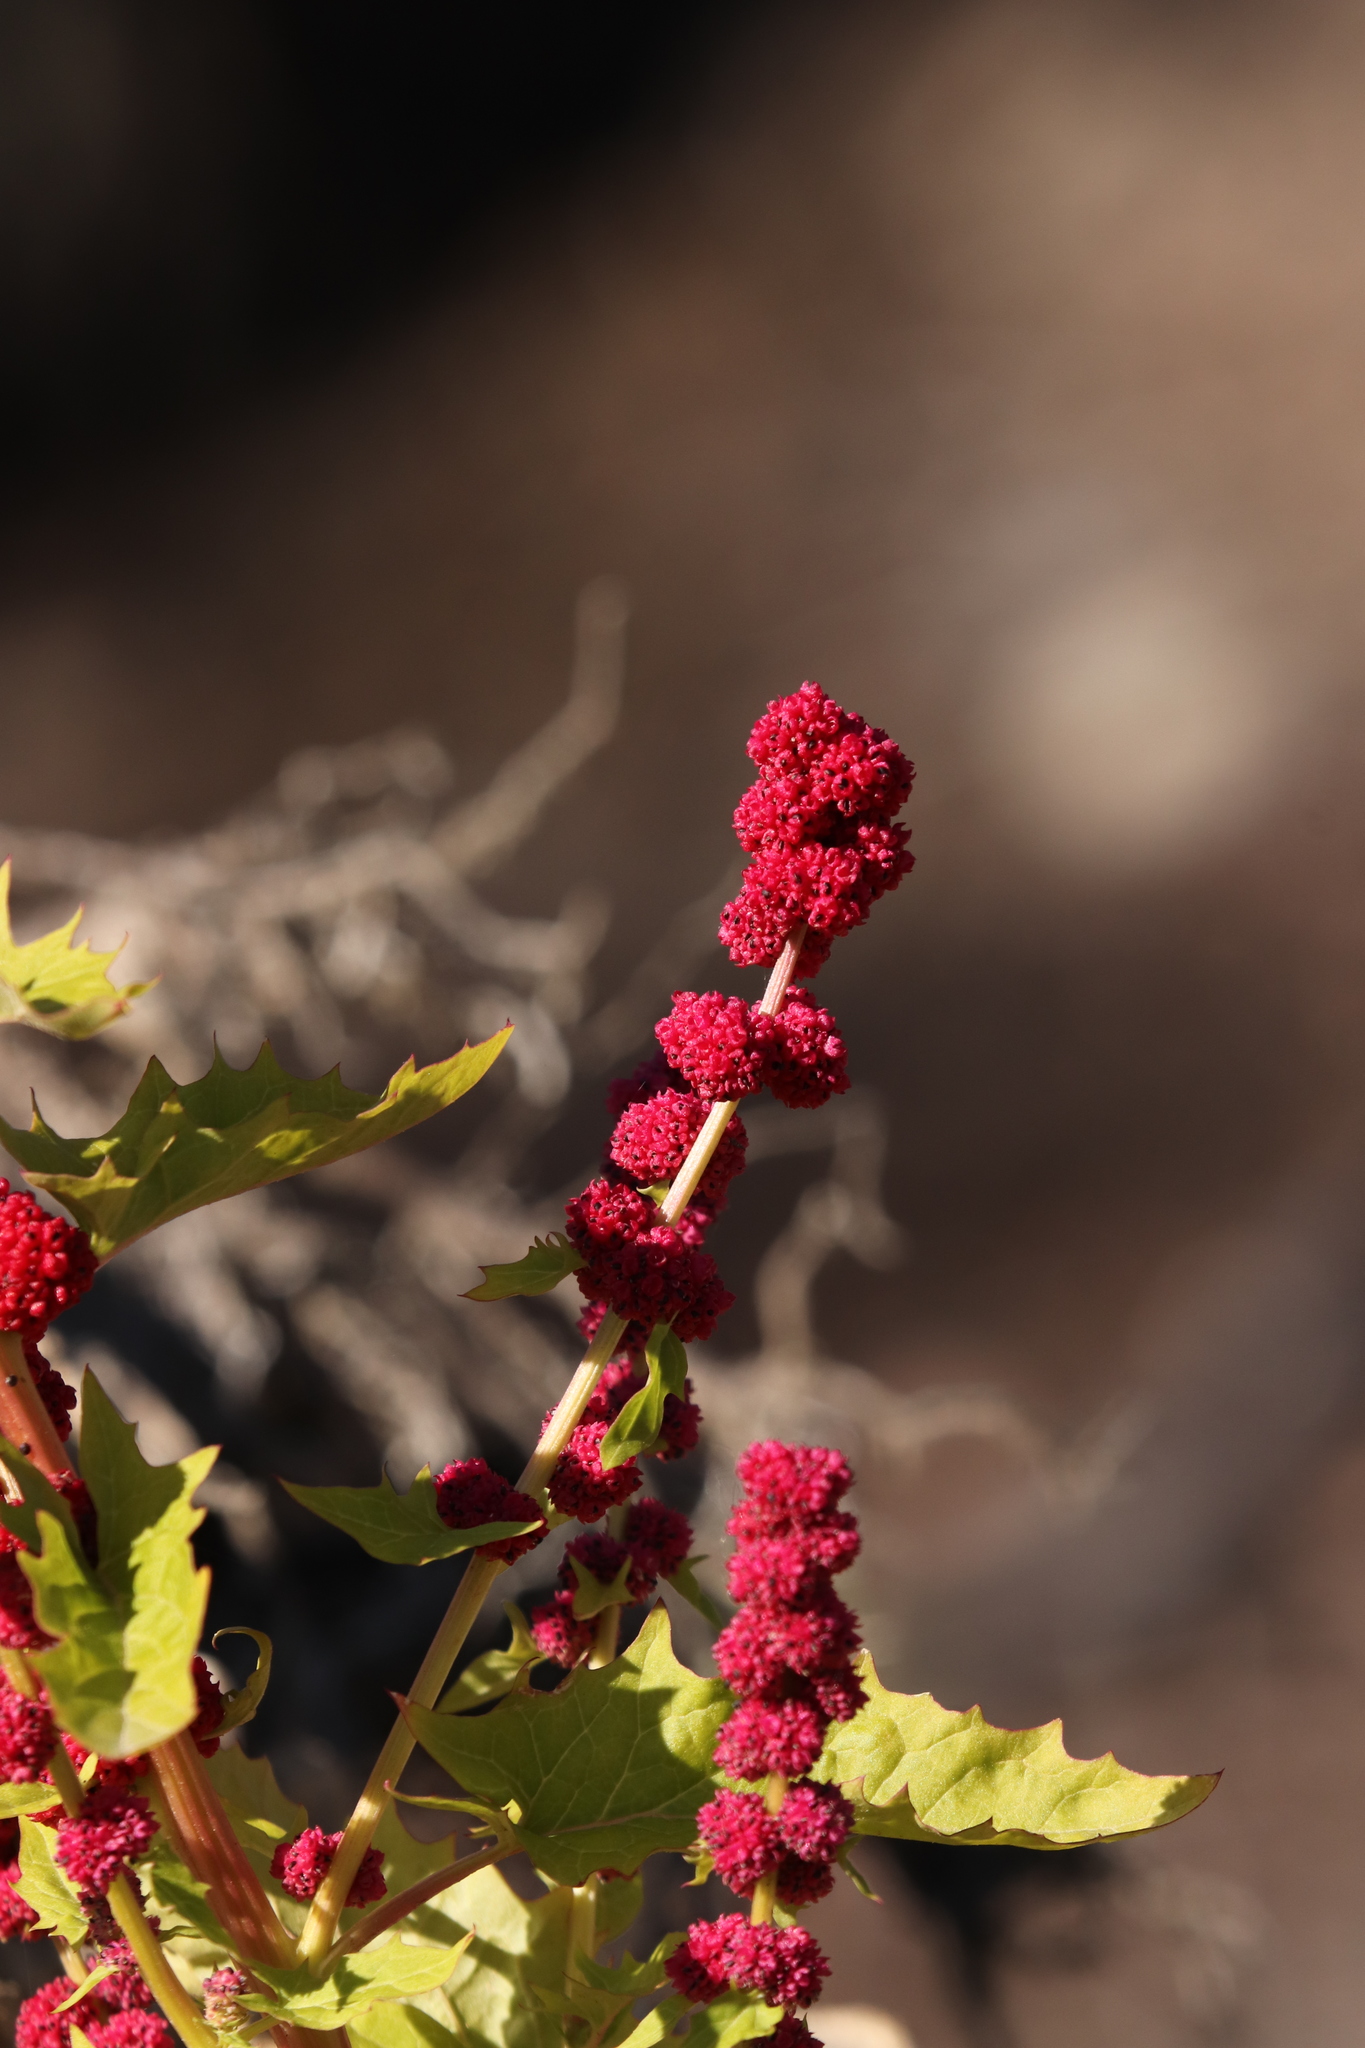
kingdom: Plantae
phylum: Tracheophyta
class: Magnoliopsida
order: Caryophyllales
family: Amaranthaceae
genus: Blitum
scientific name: Blitum capitatum
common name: Strawberry-blight
